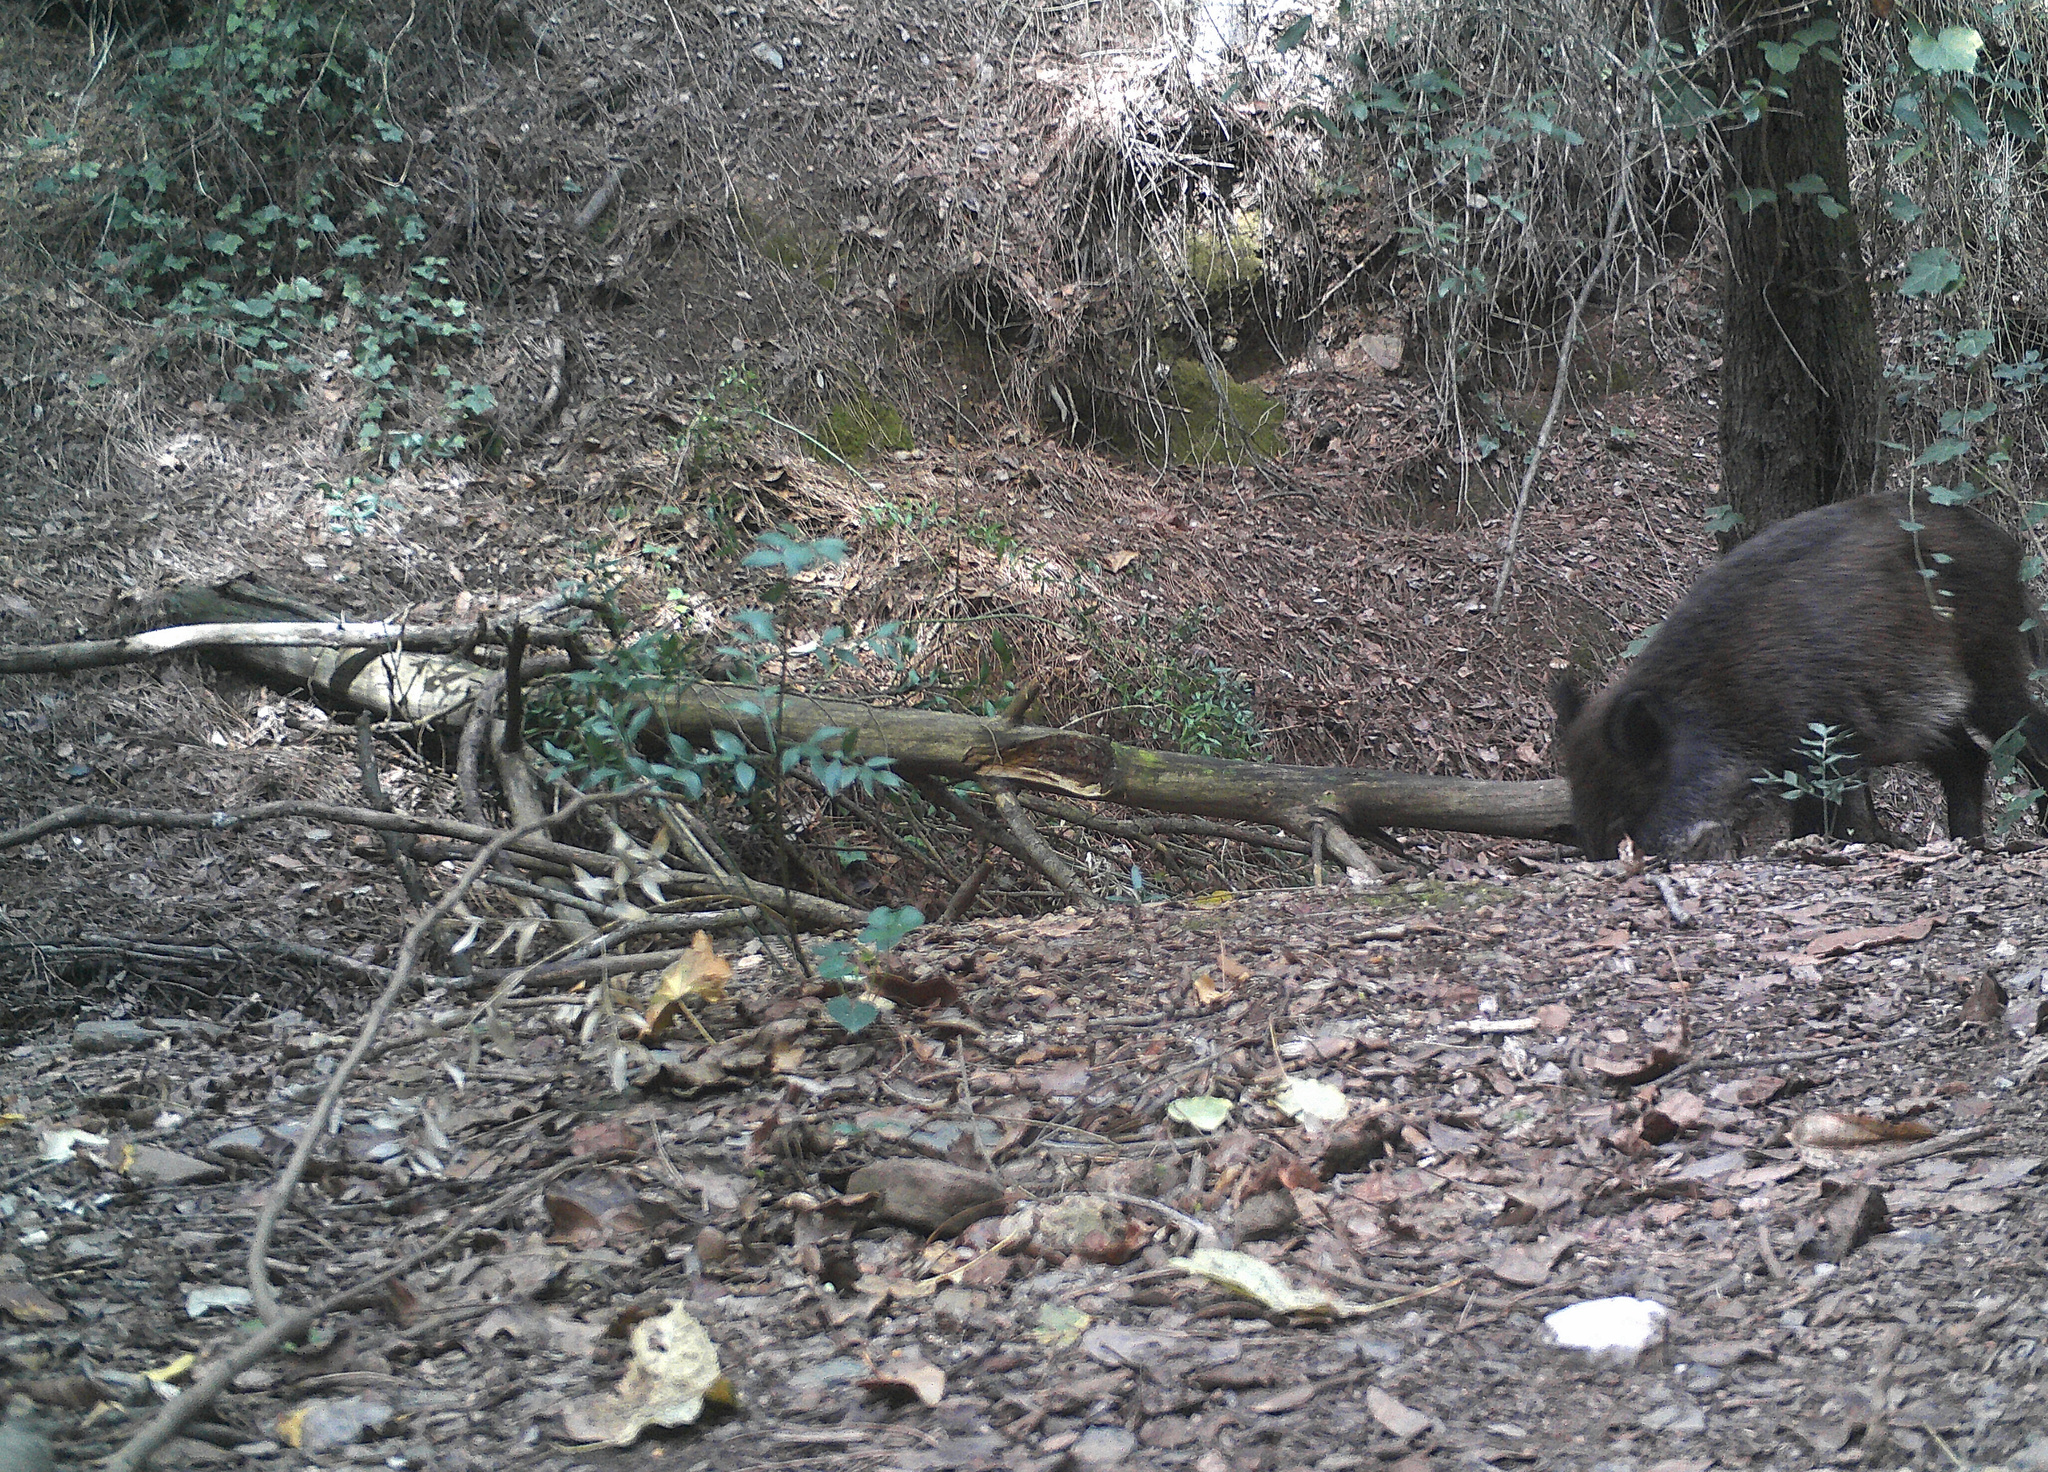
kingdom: Animalia
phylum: Chordata
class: Mammalia
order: Artiodactyla
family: Suidae
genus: Sus
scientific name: Sus scrofa
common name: Wild boar
